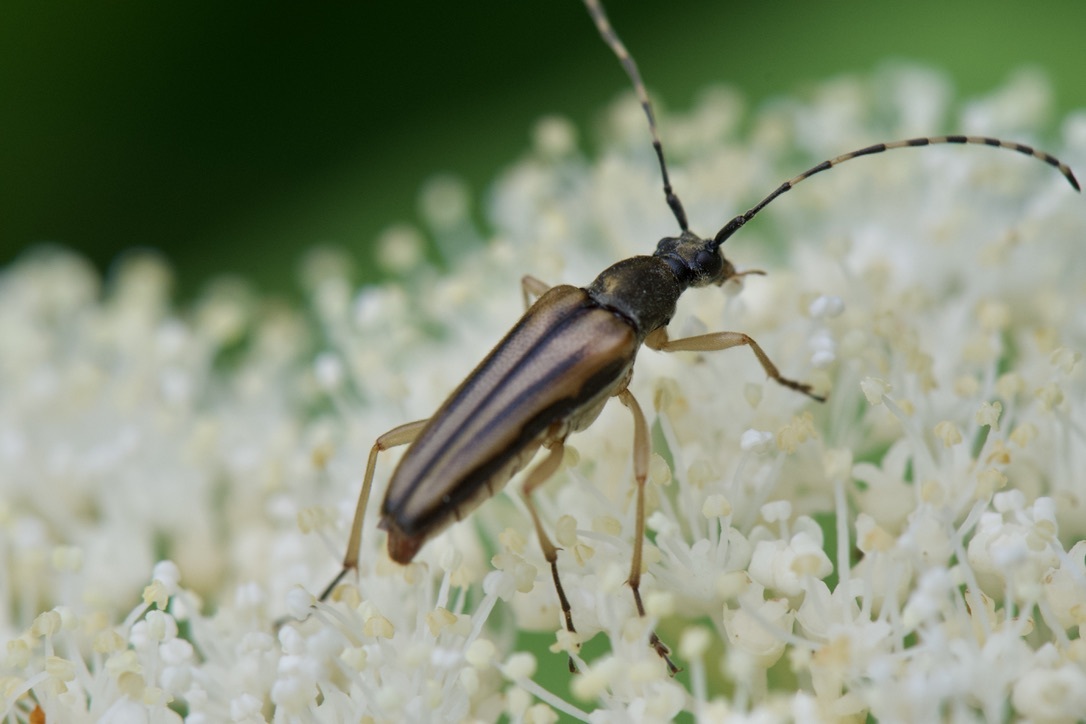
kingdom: Animalia
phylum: Arthropoda
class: Insecta
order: Coleoptera
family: Cerambycidae
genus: Analeptura
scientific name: Analeptura lineola
